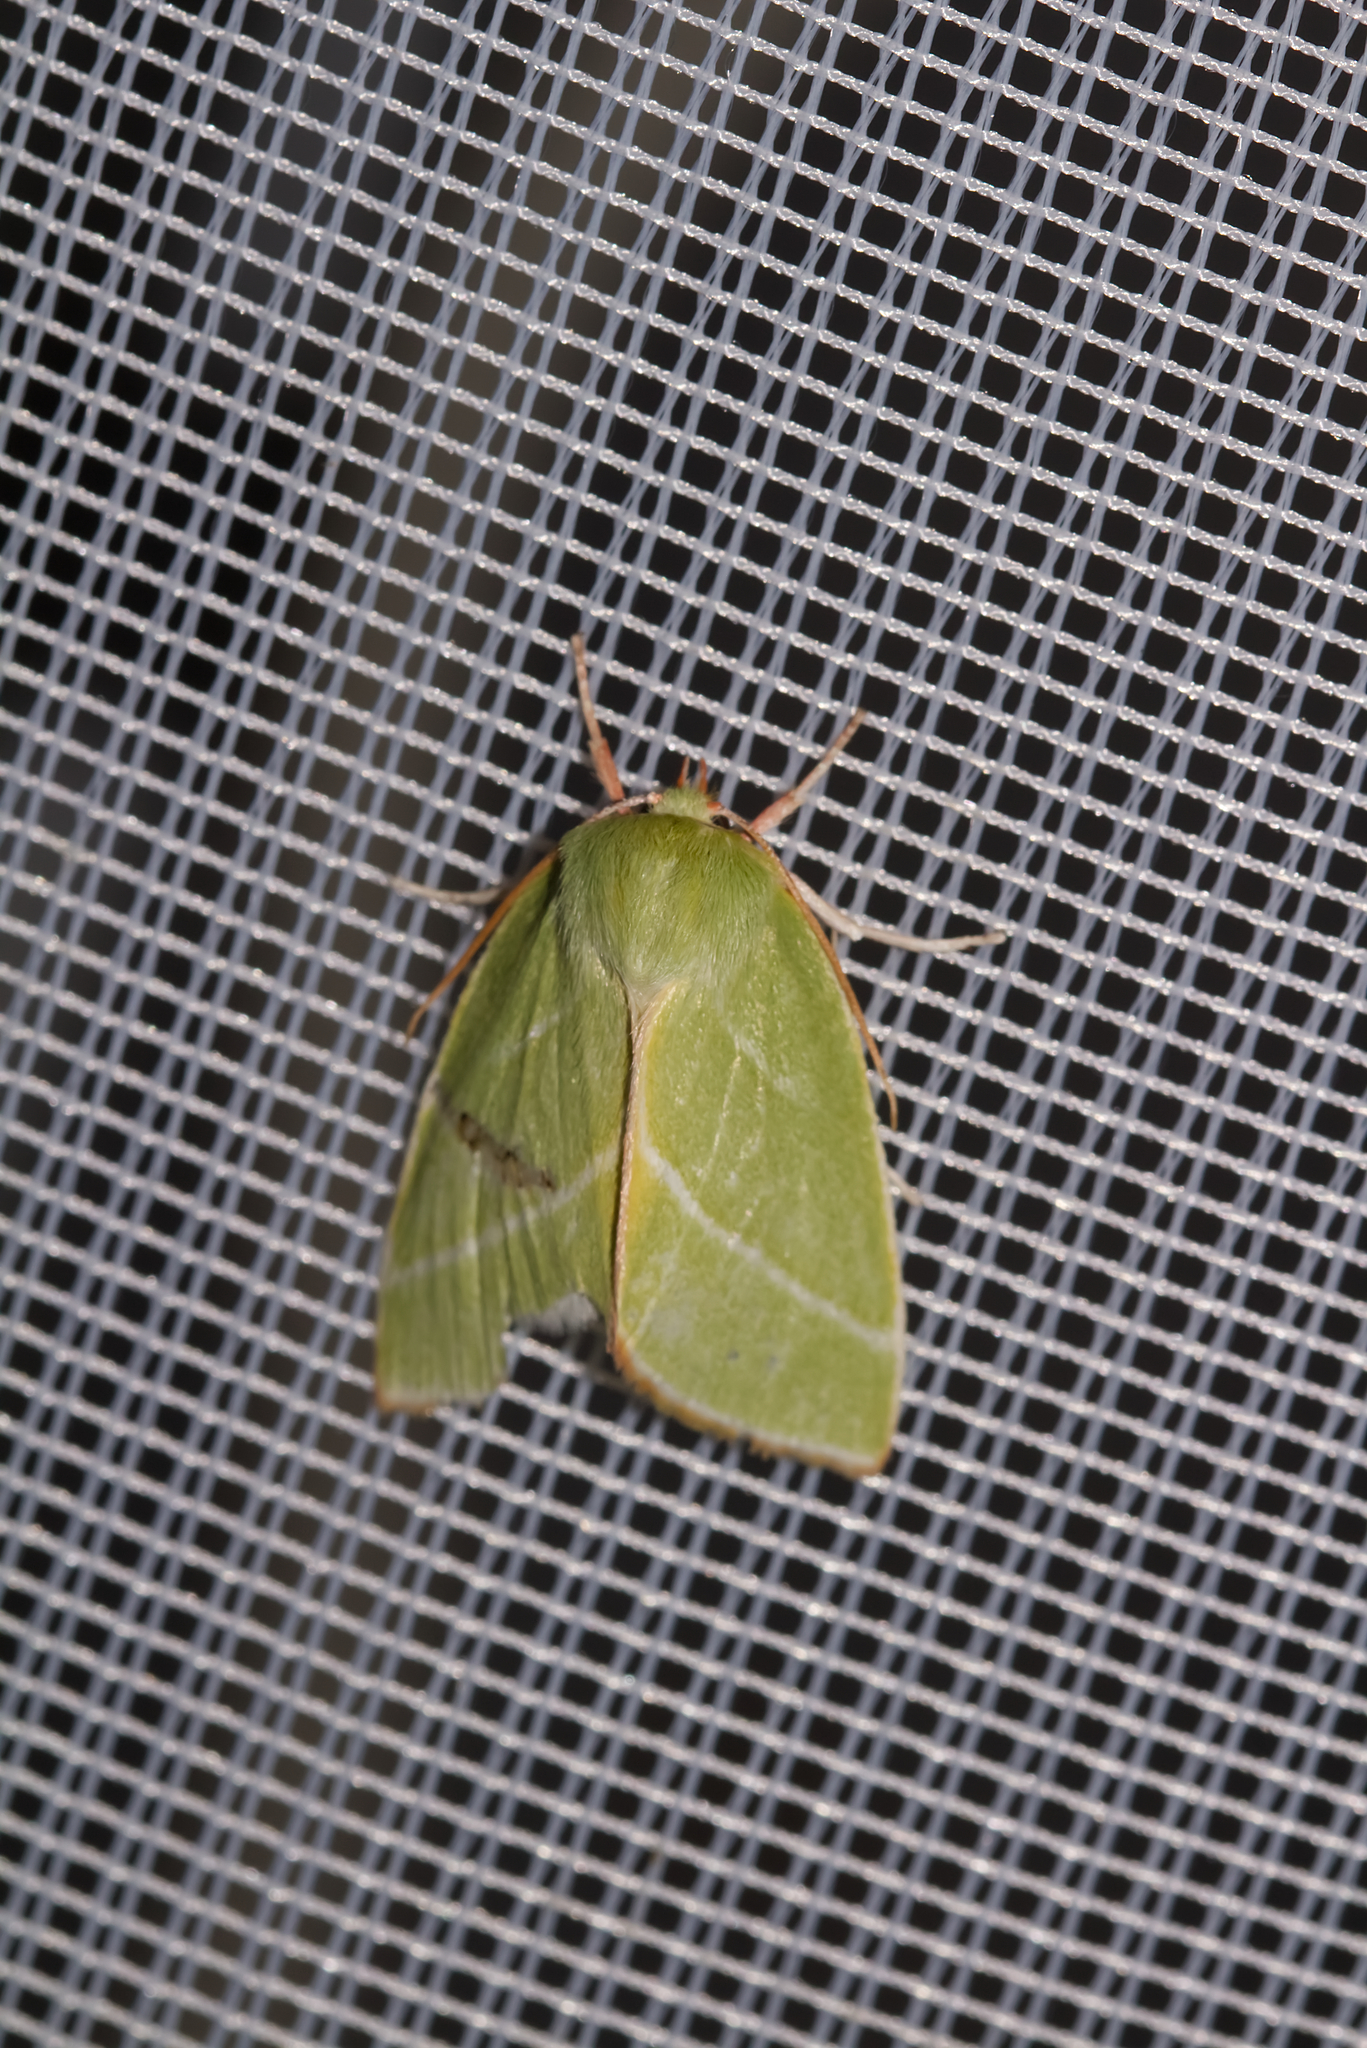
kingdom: Animalia
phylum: Arthropoda
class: Insecta
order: Lepidoptera
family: Nolidae
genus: Pseudoips
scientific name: Pseudoips prasinana
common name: Green silver-lines
